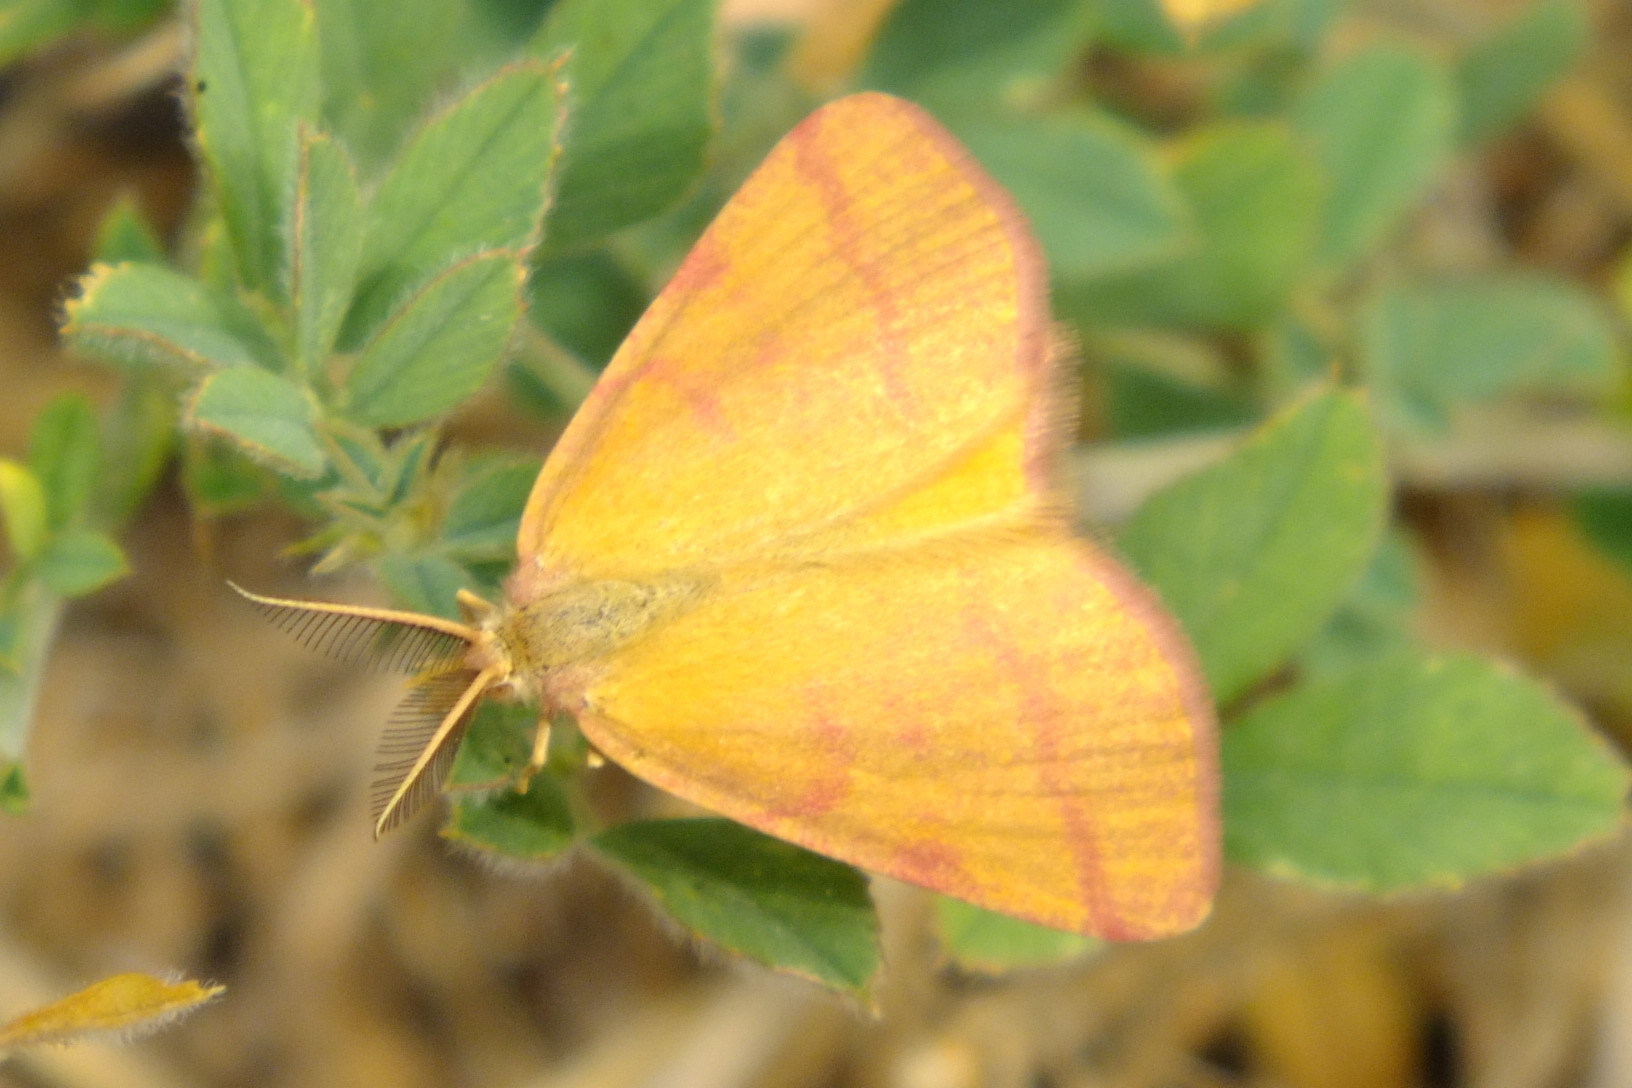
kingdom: Animalia
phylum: Arthropoda
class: Insecta
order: Lepidoptera
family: Geometridae
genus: Lythria
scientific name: Lythria purpuraria
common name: Purple-barred yellow
